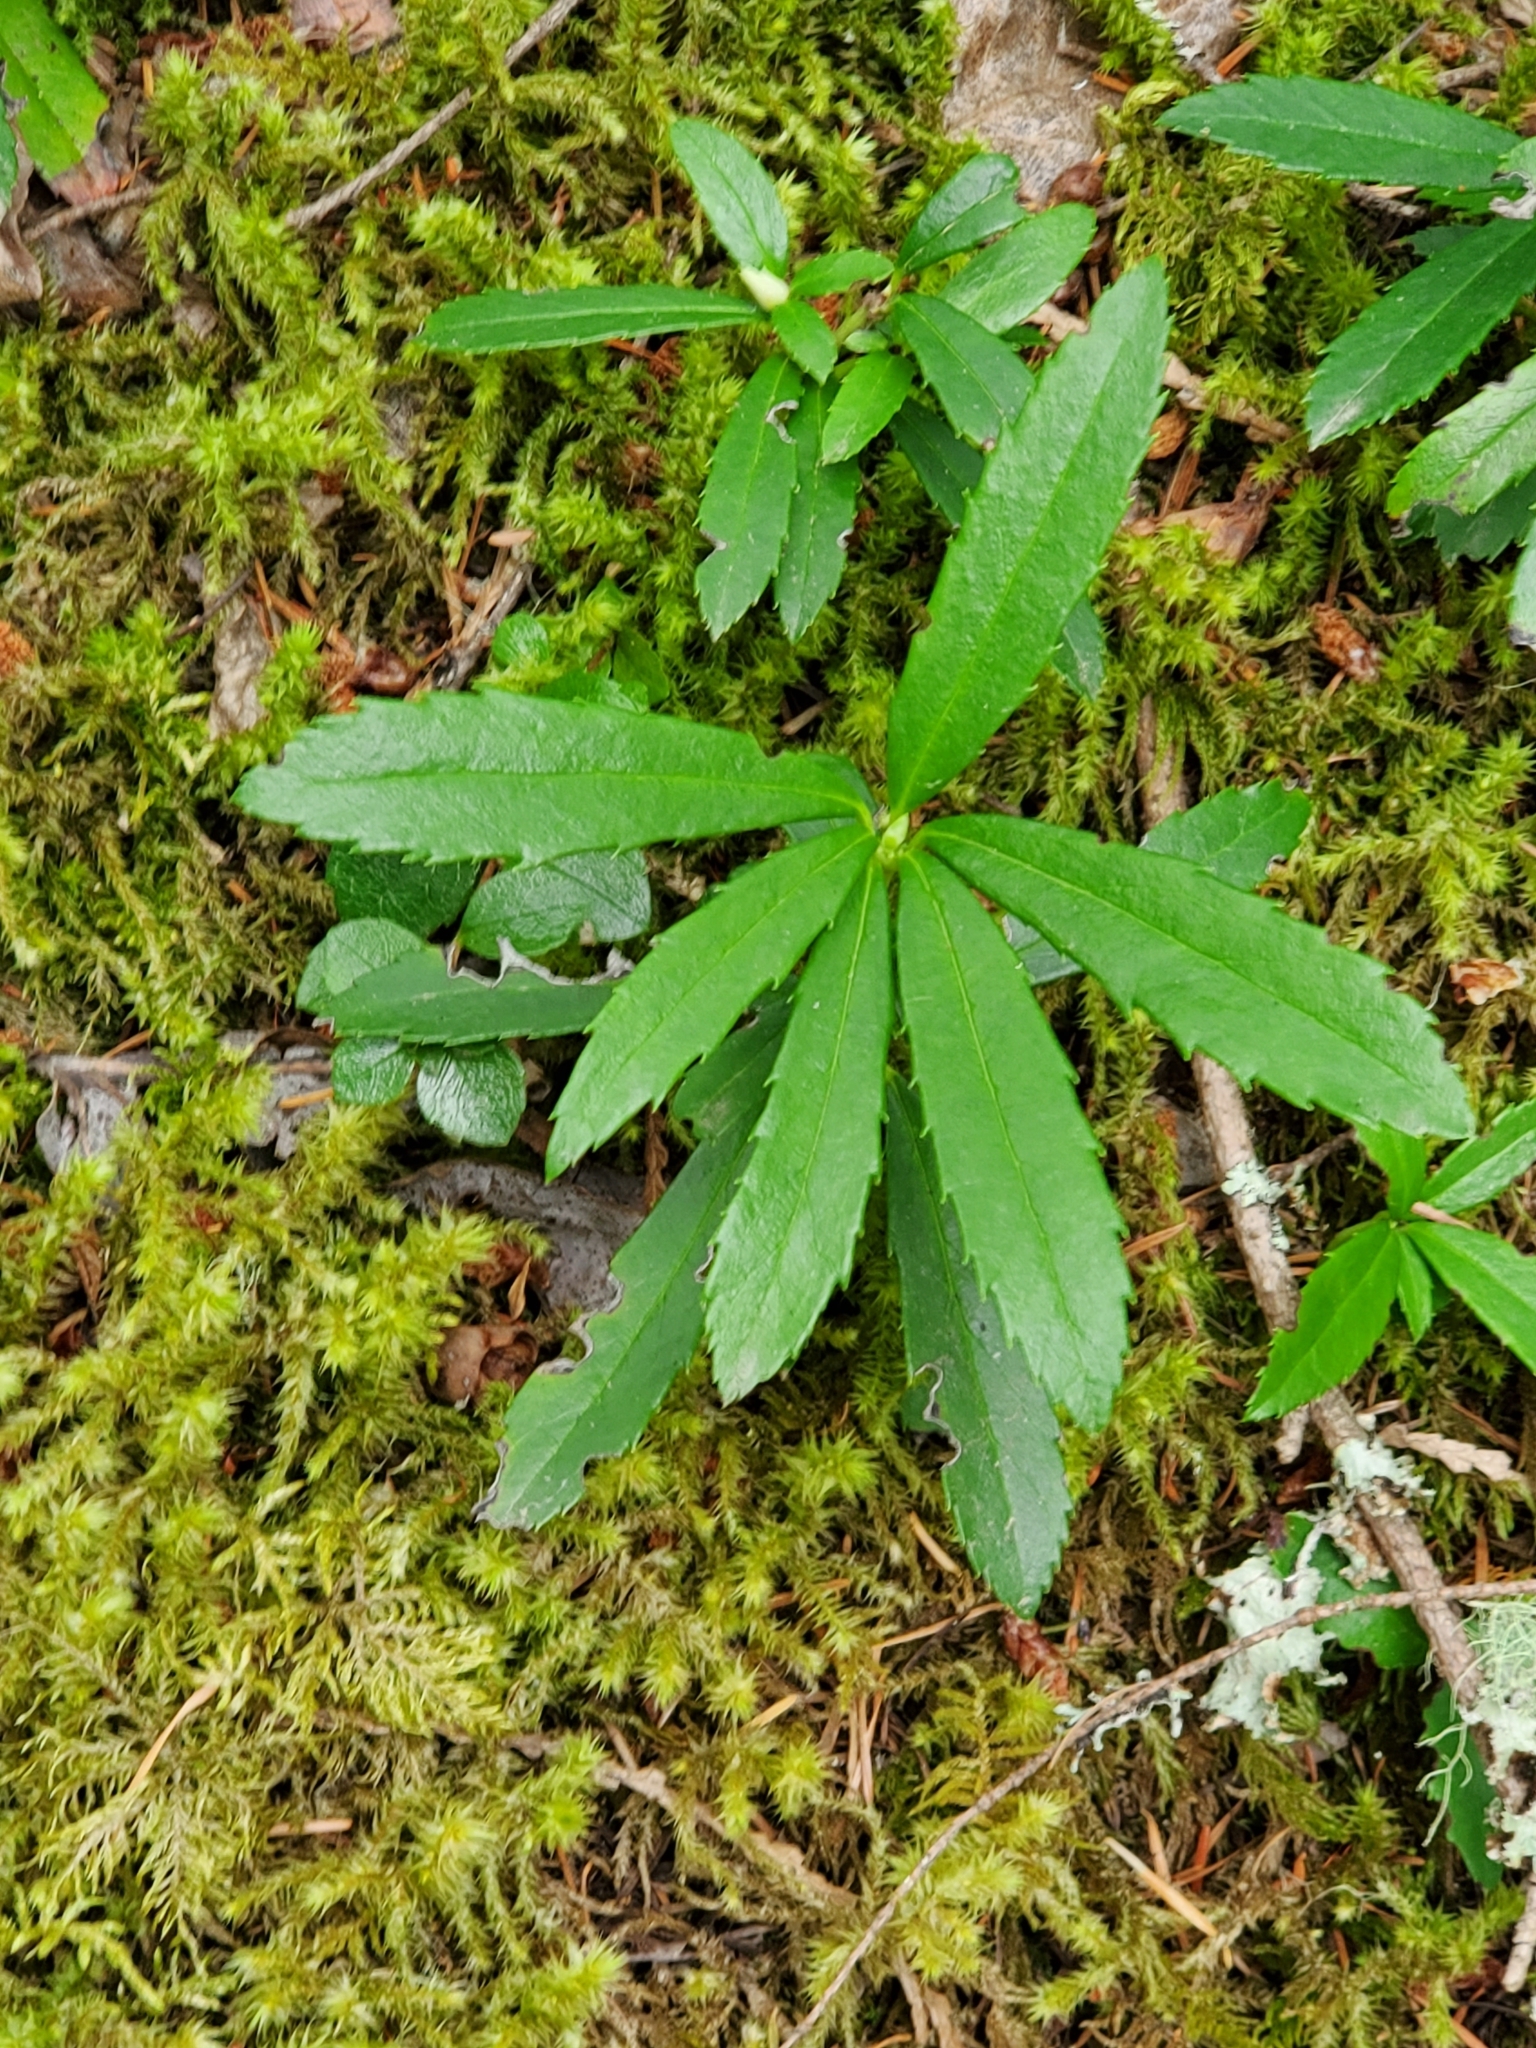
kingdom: Plantae
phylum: Tracheophyta
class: Magnoliopsida
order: Ericales
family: Ericaceae
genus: Chimaphila
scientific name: Chimaphila umbellata
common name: Pipsissewa
